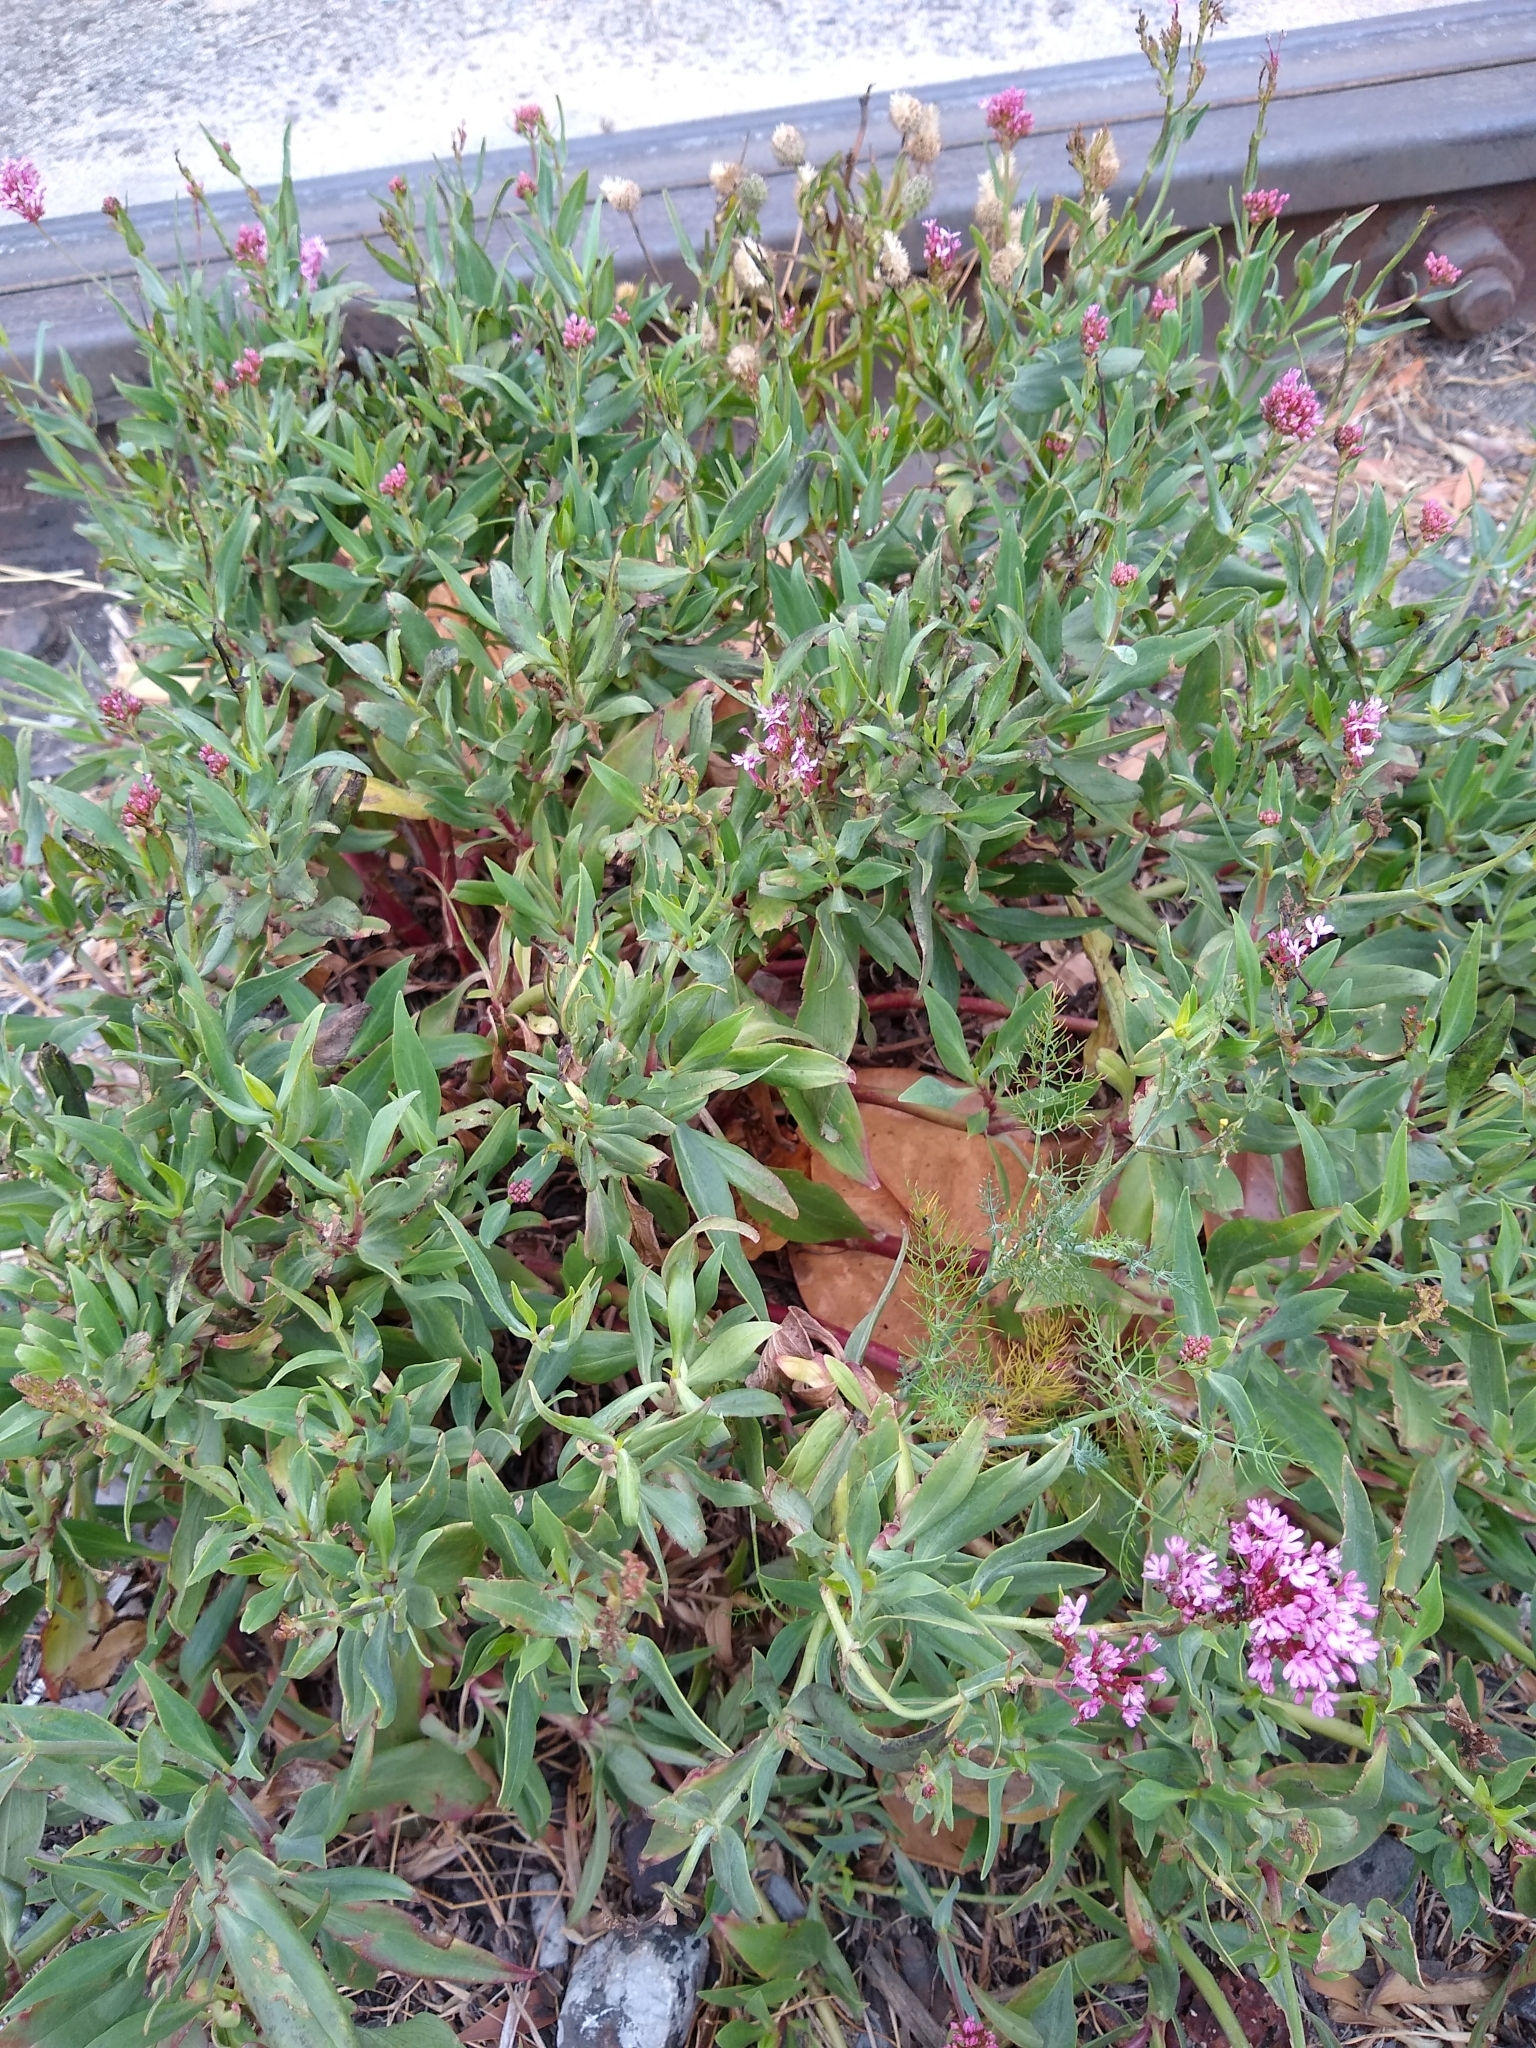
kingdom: Plantae
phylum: Tracheophyta
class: Magnoliopsida
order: Dipsacales
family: Caprifoliaceae
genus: Centranthus
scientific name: Centranthus ruber
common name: Red valerian
